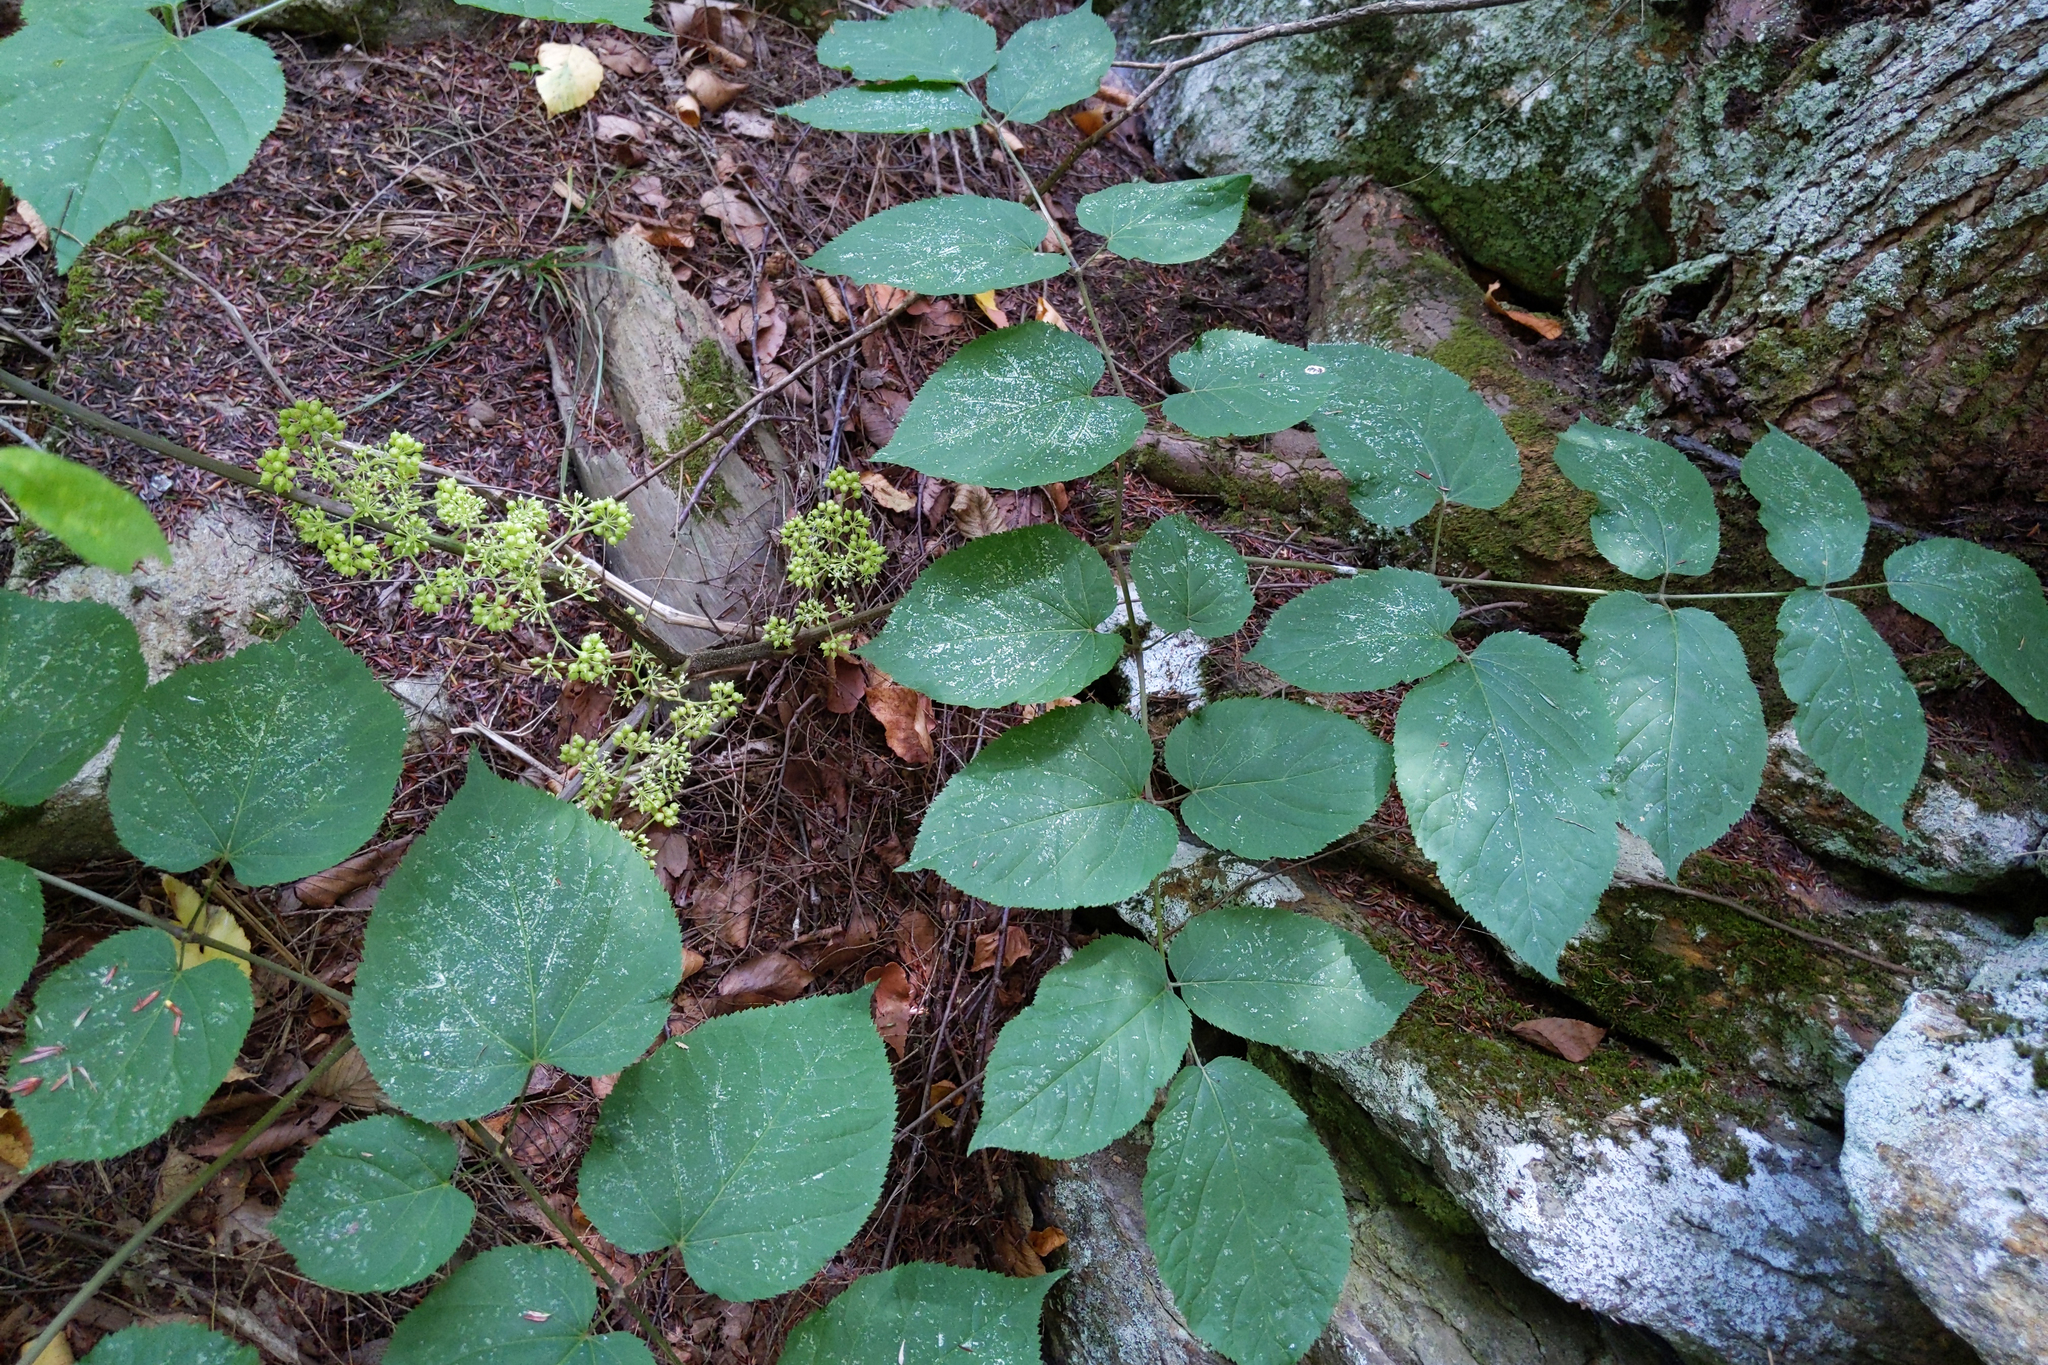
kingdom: Plantae
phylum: Tracheophyta
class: Magnoliopsida
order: Apiales
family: Araliaceae
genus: Aralia
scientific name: Aralia racemosa
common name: American-spikenard
